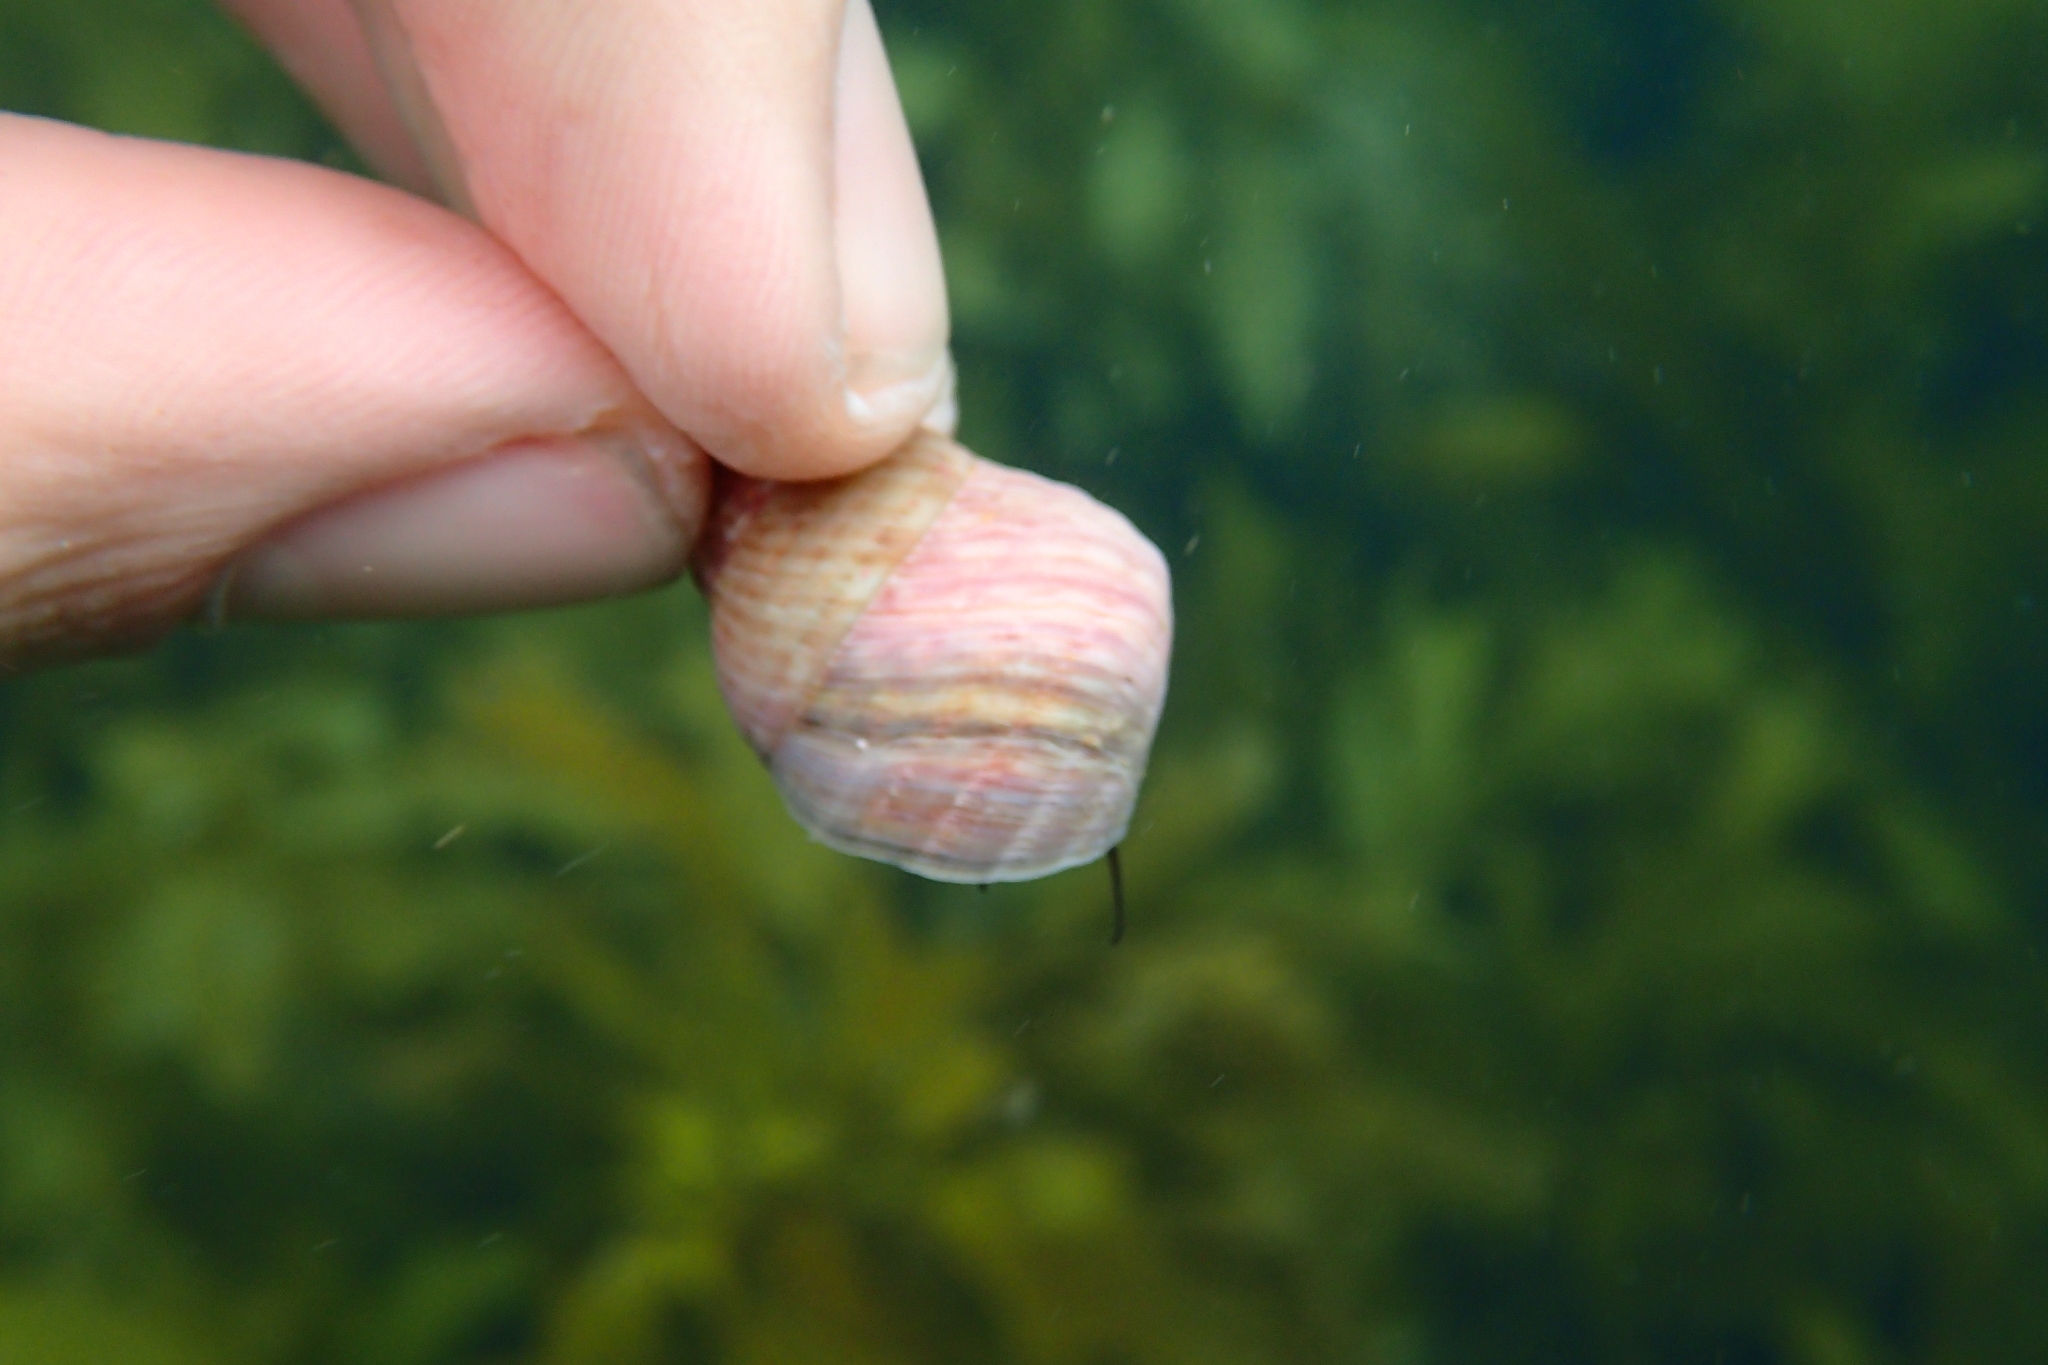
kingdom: Animalia
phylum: Mollusca
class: Gastropoda
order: Trochida
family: Trochidae
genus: Micrelenchus
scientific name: Micrelenchus purpureus
